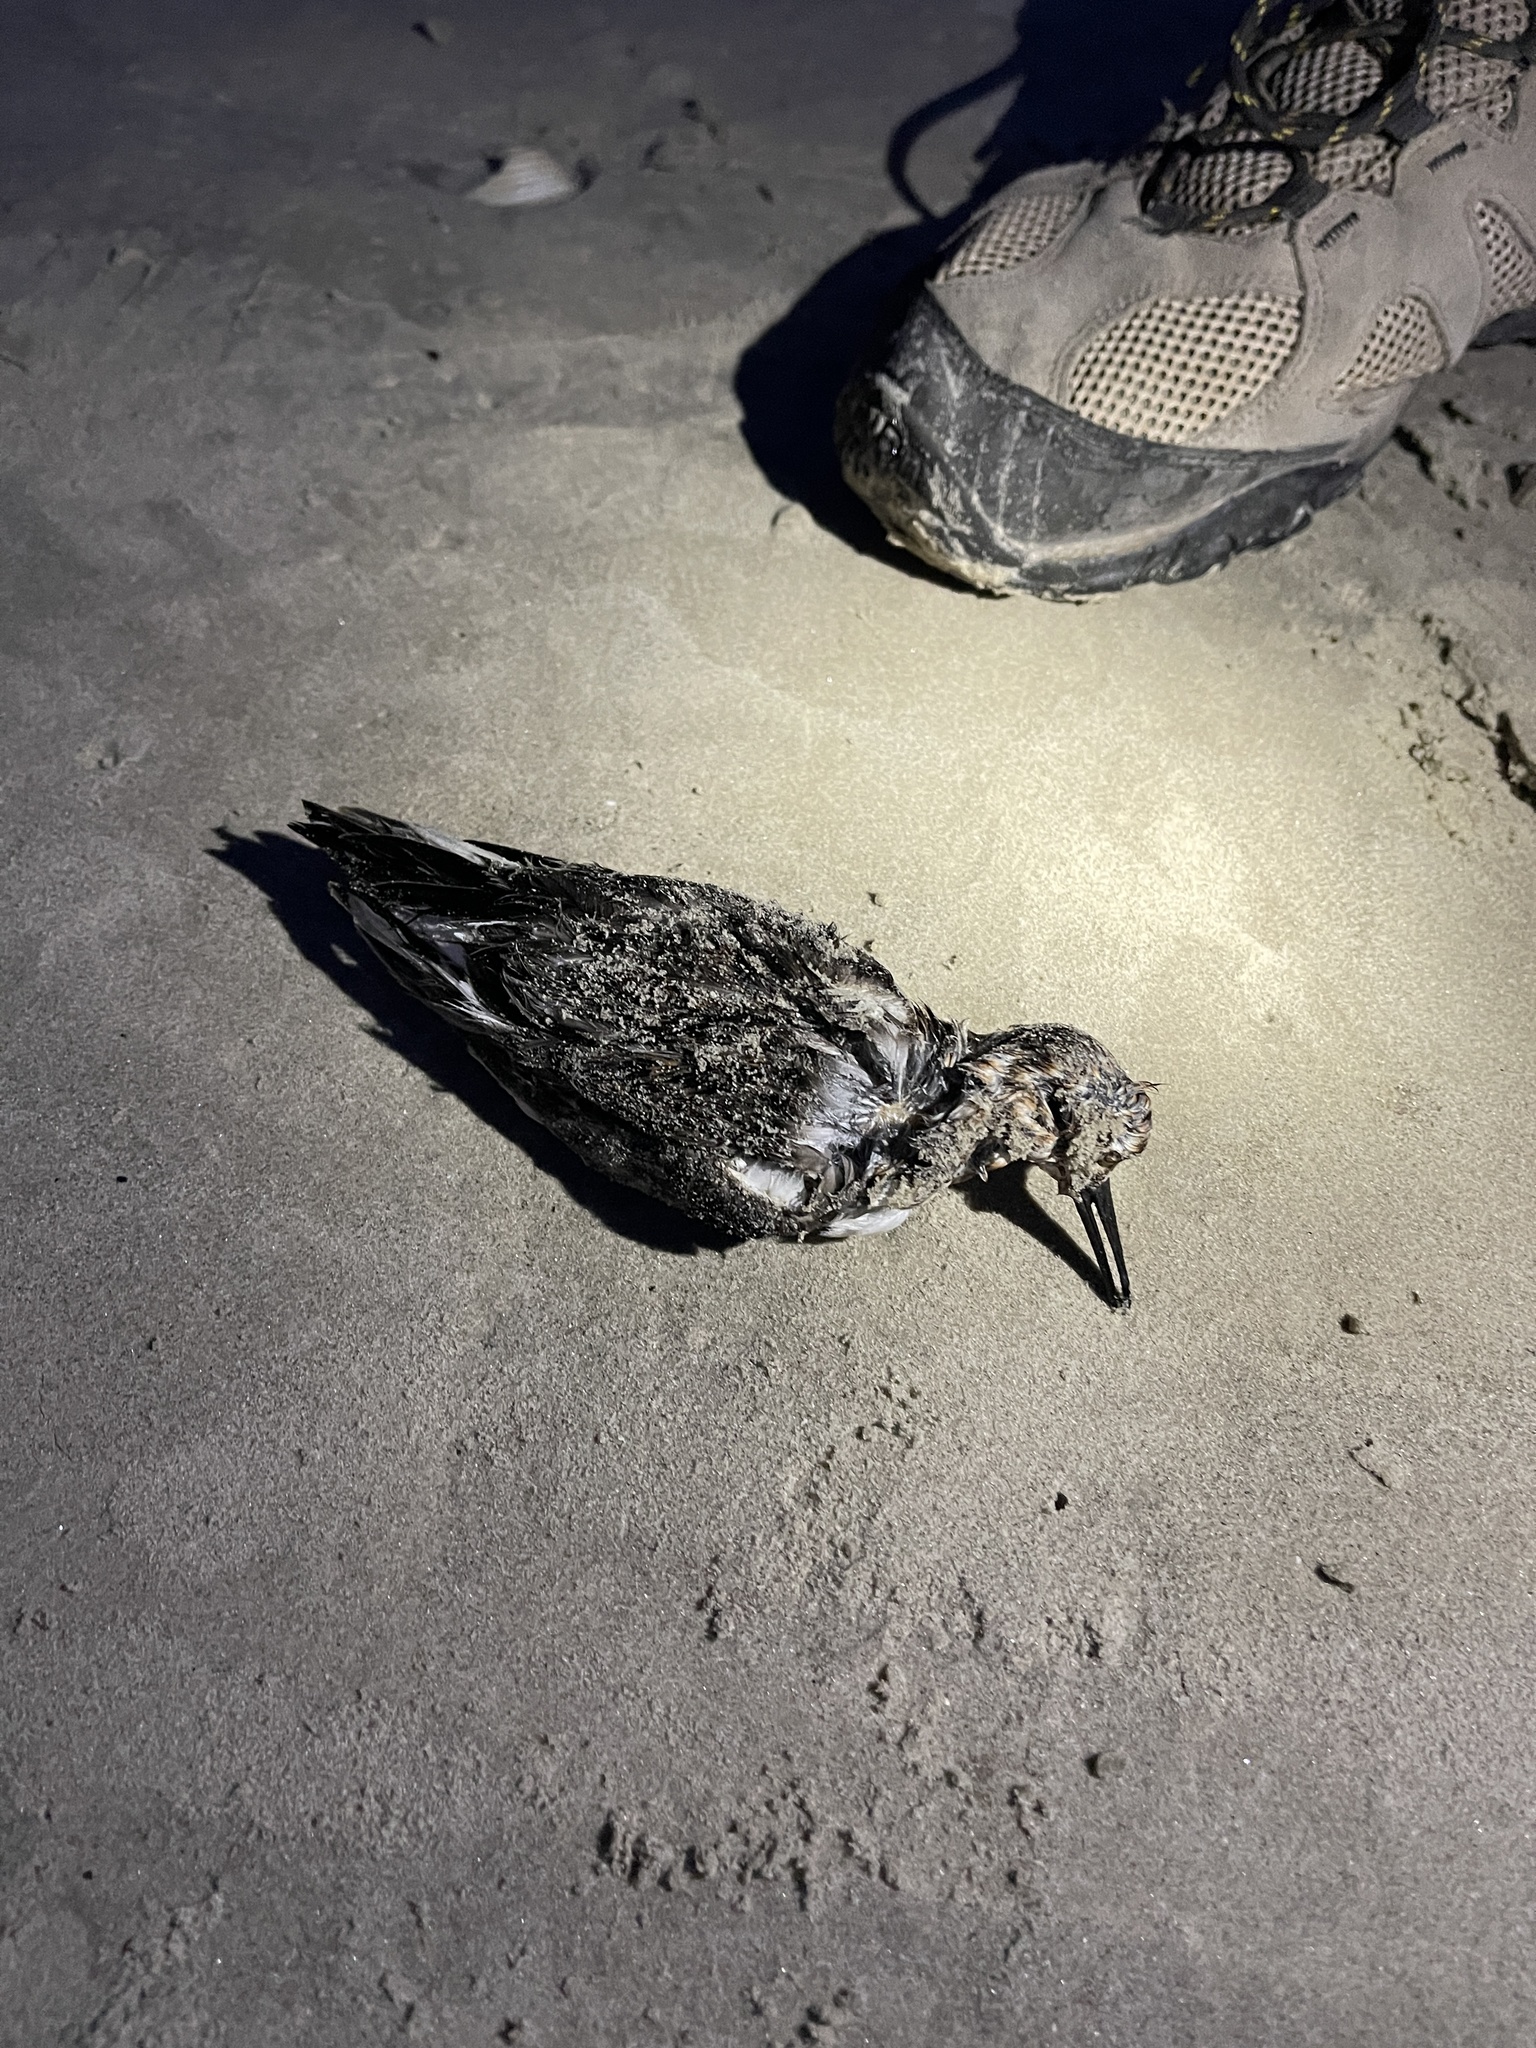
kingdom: Animalia
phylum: Chordata
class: Aves
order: Charadriiformes
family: Scolopacidae
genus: Calidris
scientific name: Calidris canutus
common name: Red knot
